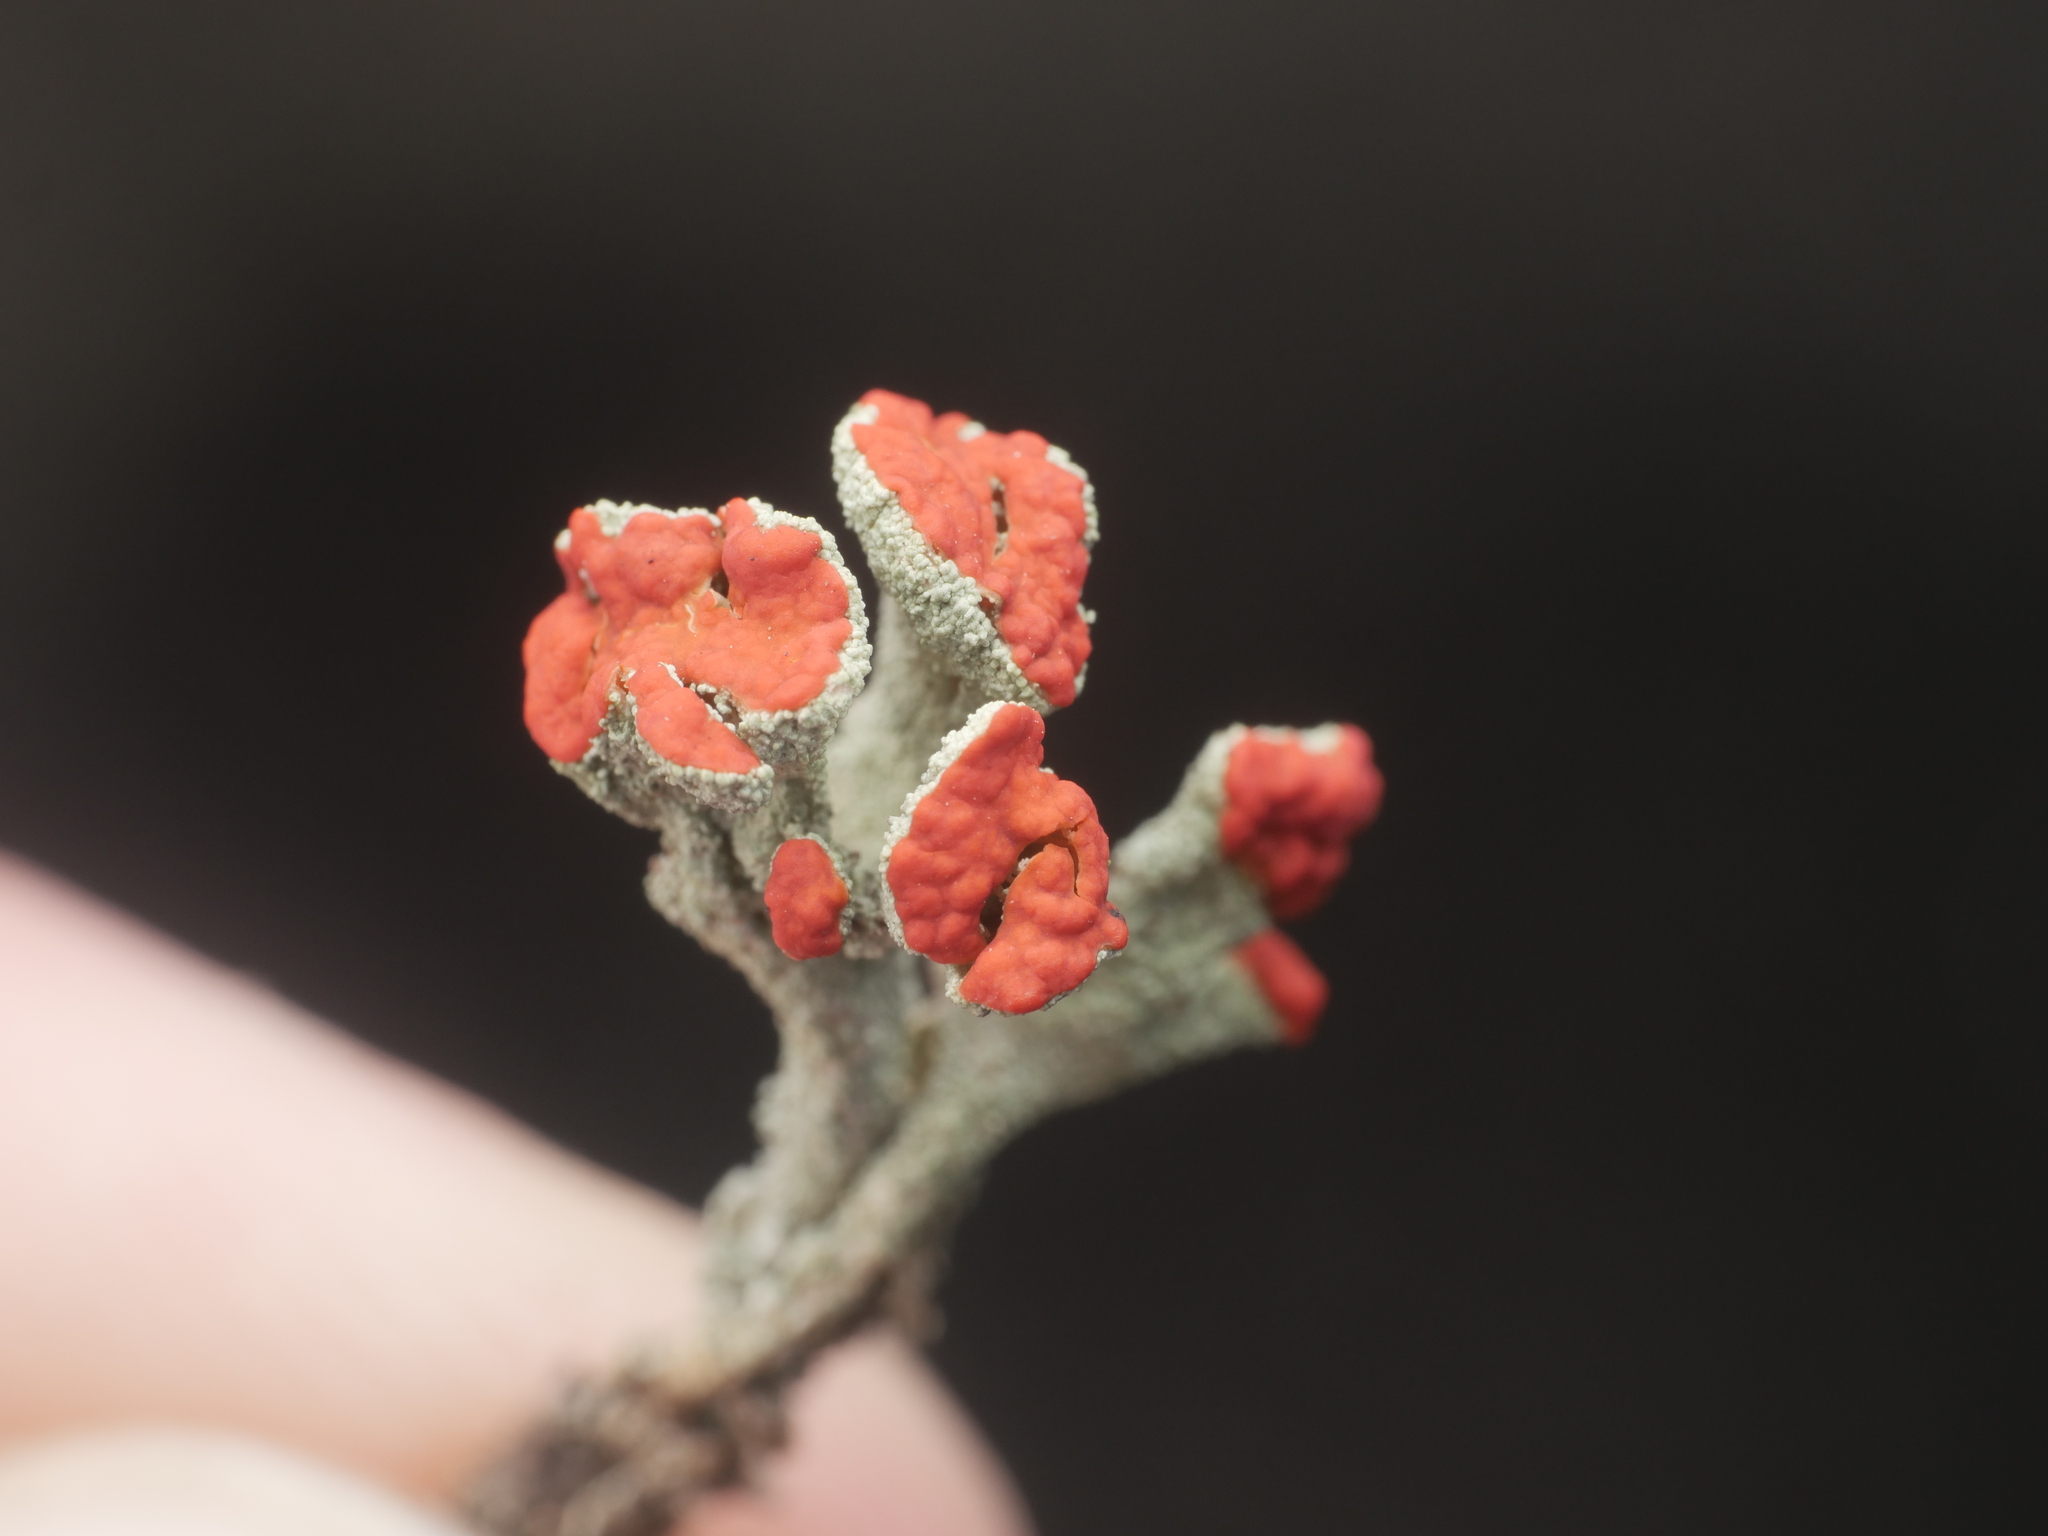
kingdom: Fungi
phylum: Ascomycota
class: Lecanoromycetes
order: Lecanorales
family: Cladoniaceae
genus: Cladonia
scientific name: Cladonia macilenta
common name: Lipstick powderhorn
